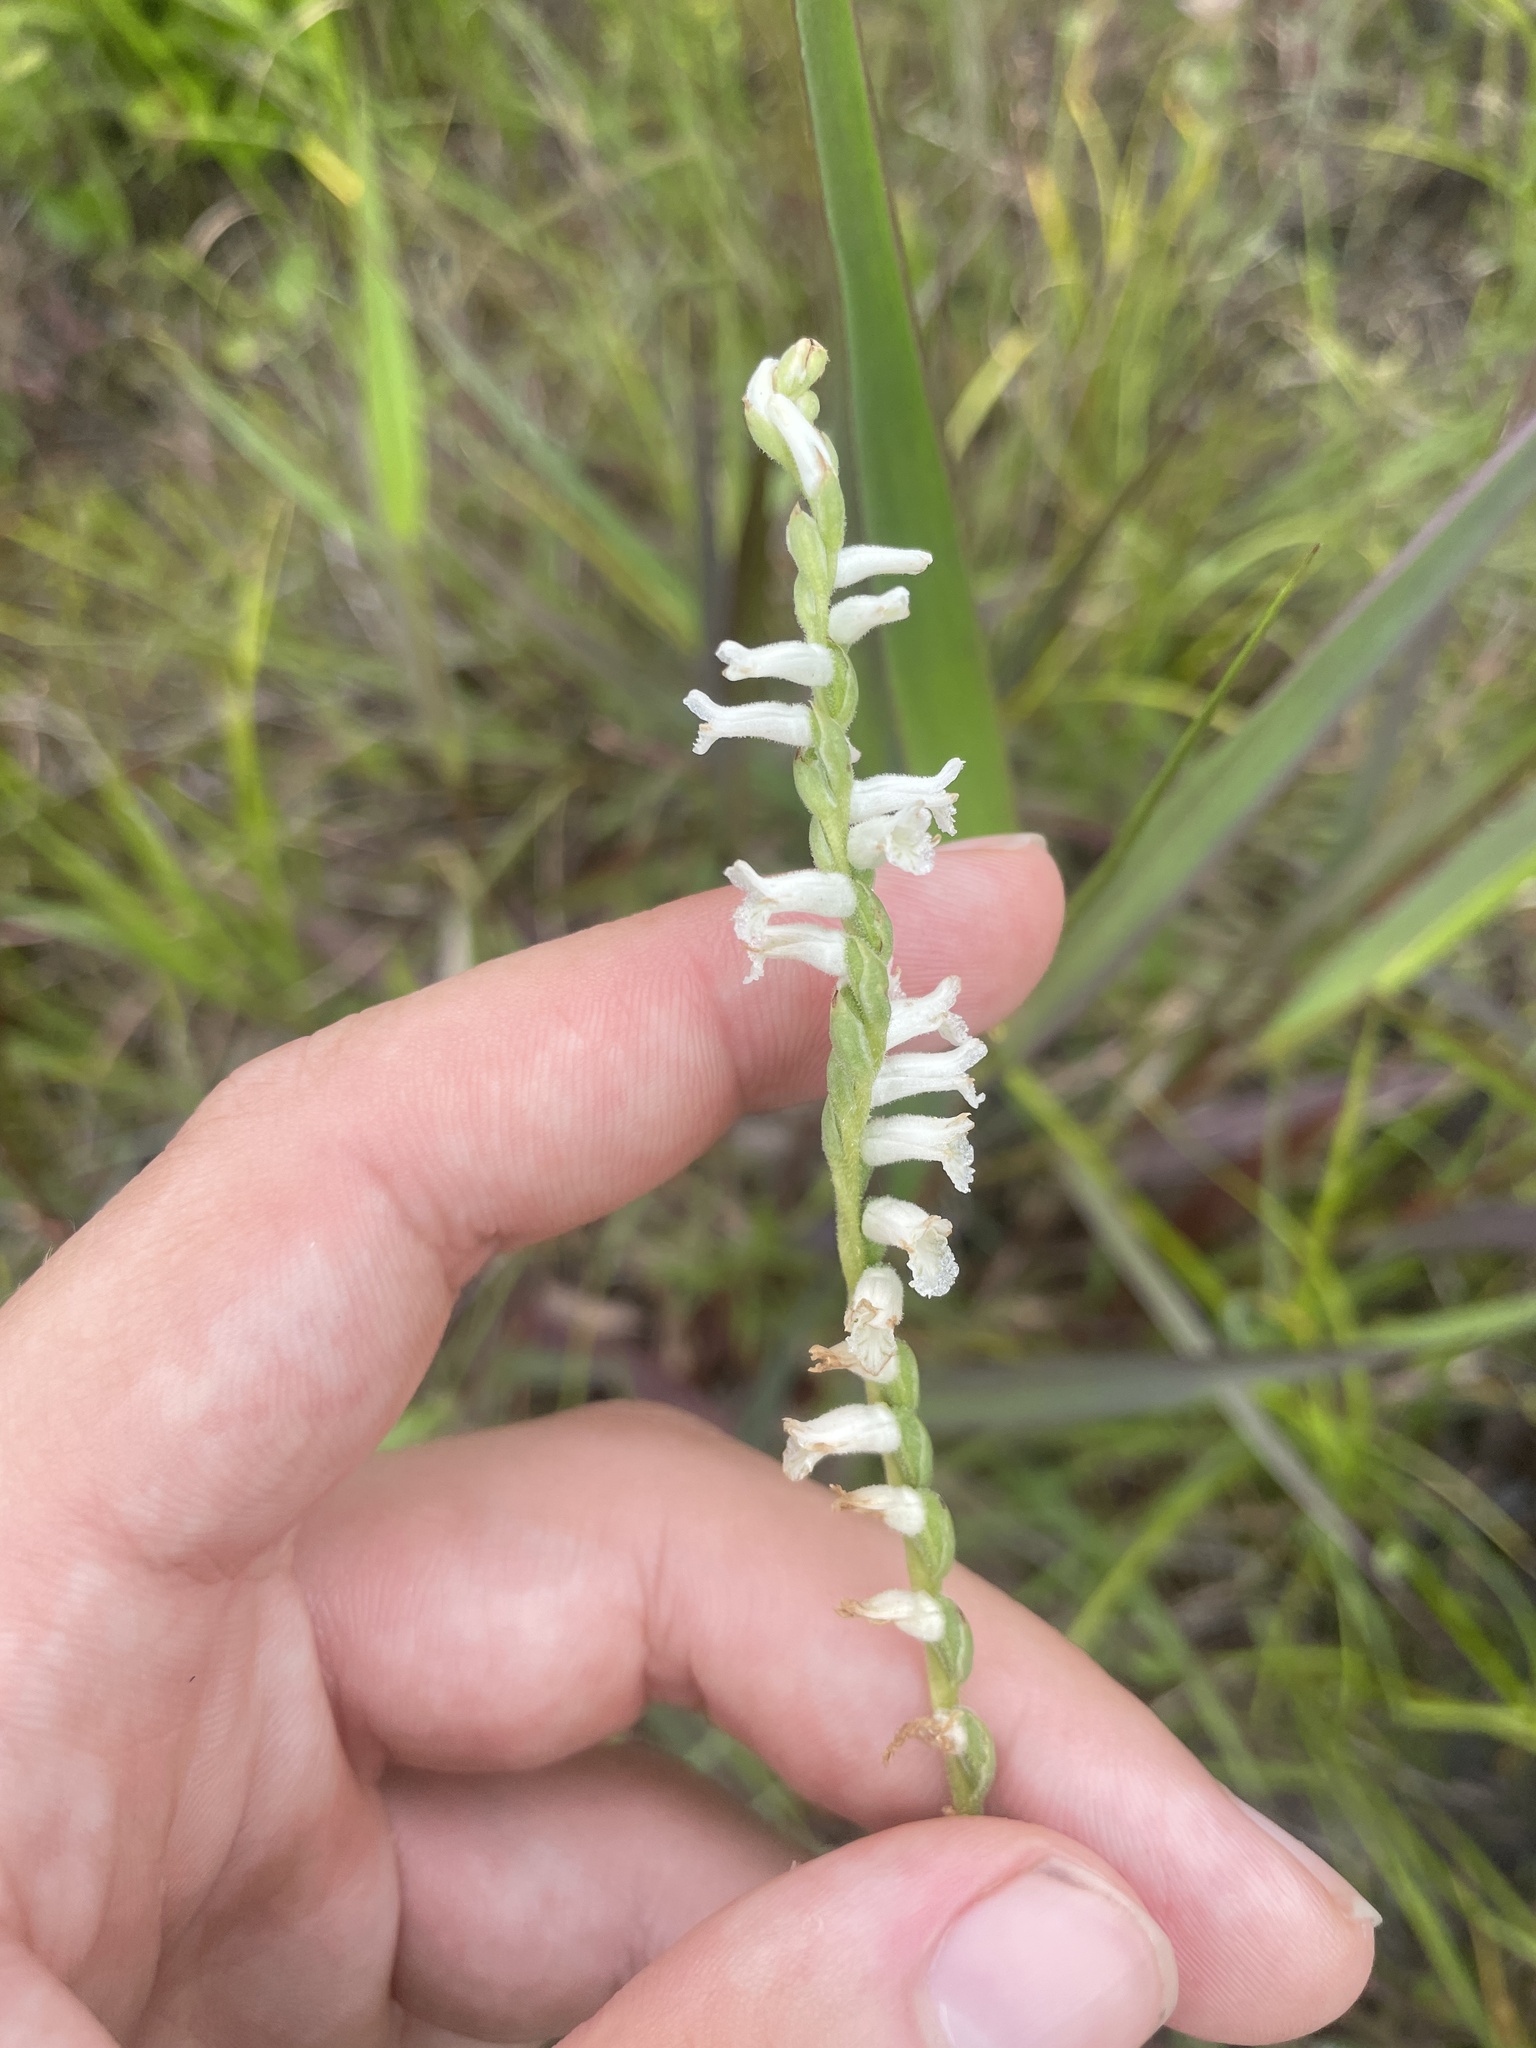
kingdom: Plantae
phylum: Tracheophyta
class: Liliopsida
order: Asparagales
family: Orchidaceae
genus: Spiranthes
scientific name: Spiranthes praecox
